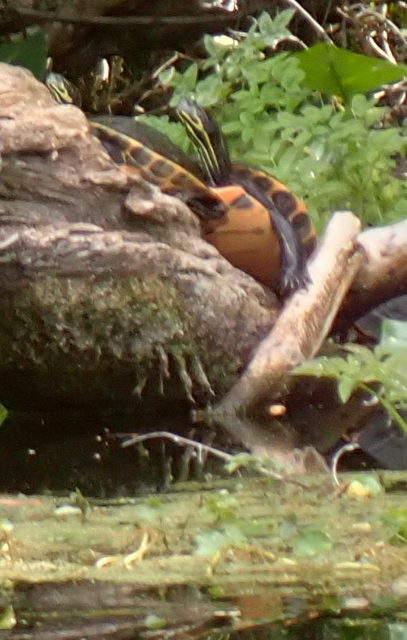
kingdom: Animalia
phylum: Chordata
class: Testudines
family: Emydidae
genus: Pseudemys
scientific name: Pseudemys concinna
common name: Eastern river cooter
